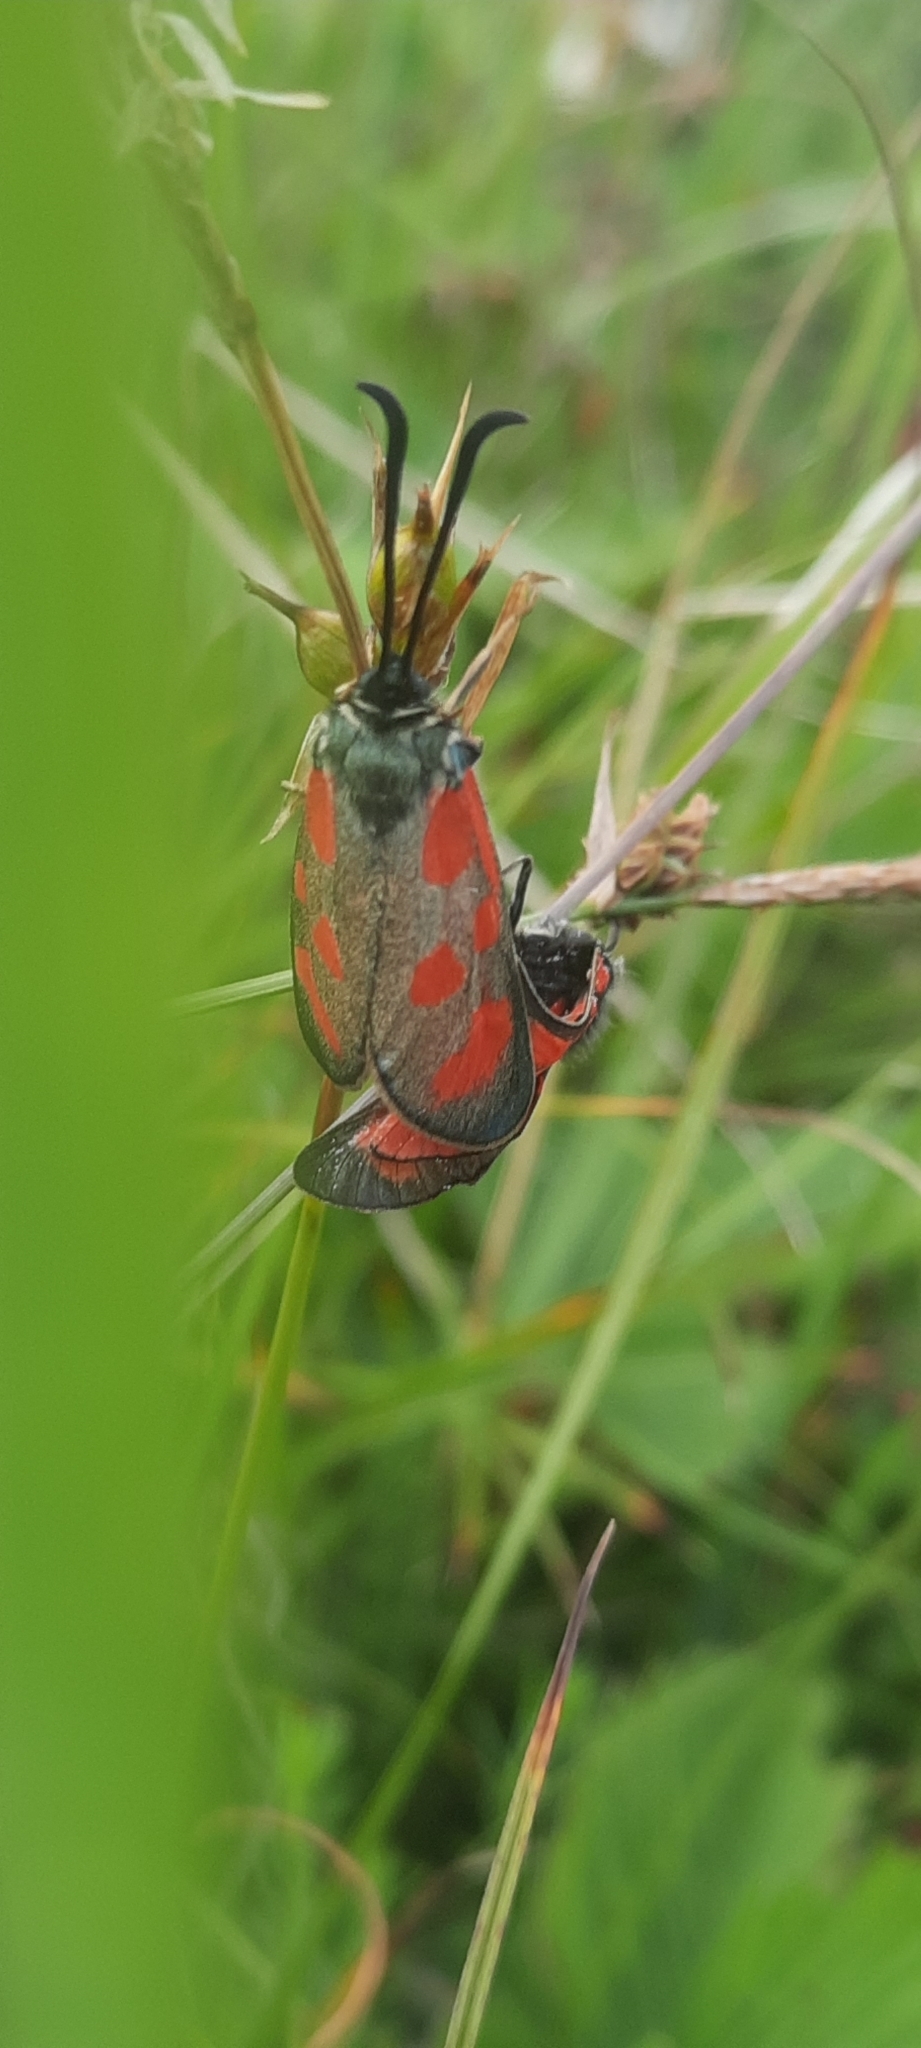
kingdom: Animalia
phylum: Arthropoda
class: Insecta
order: Lepidoptera
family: Zygaenidae
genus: Zygaena
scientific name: Zygaena loti
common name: Slender scotch burnet
